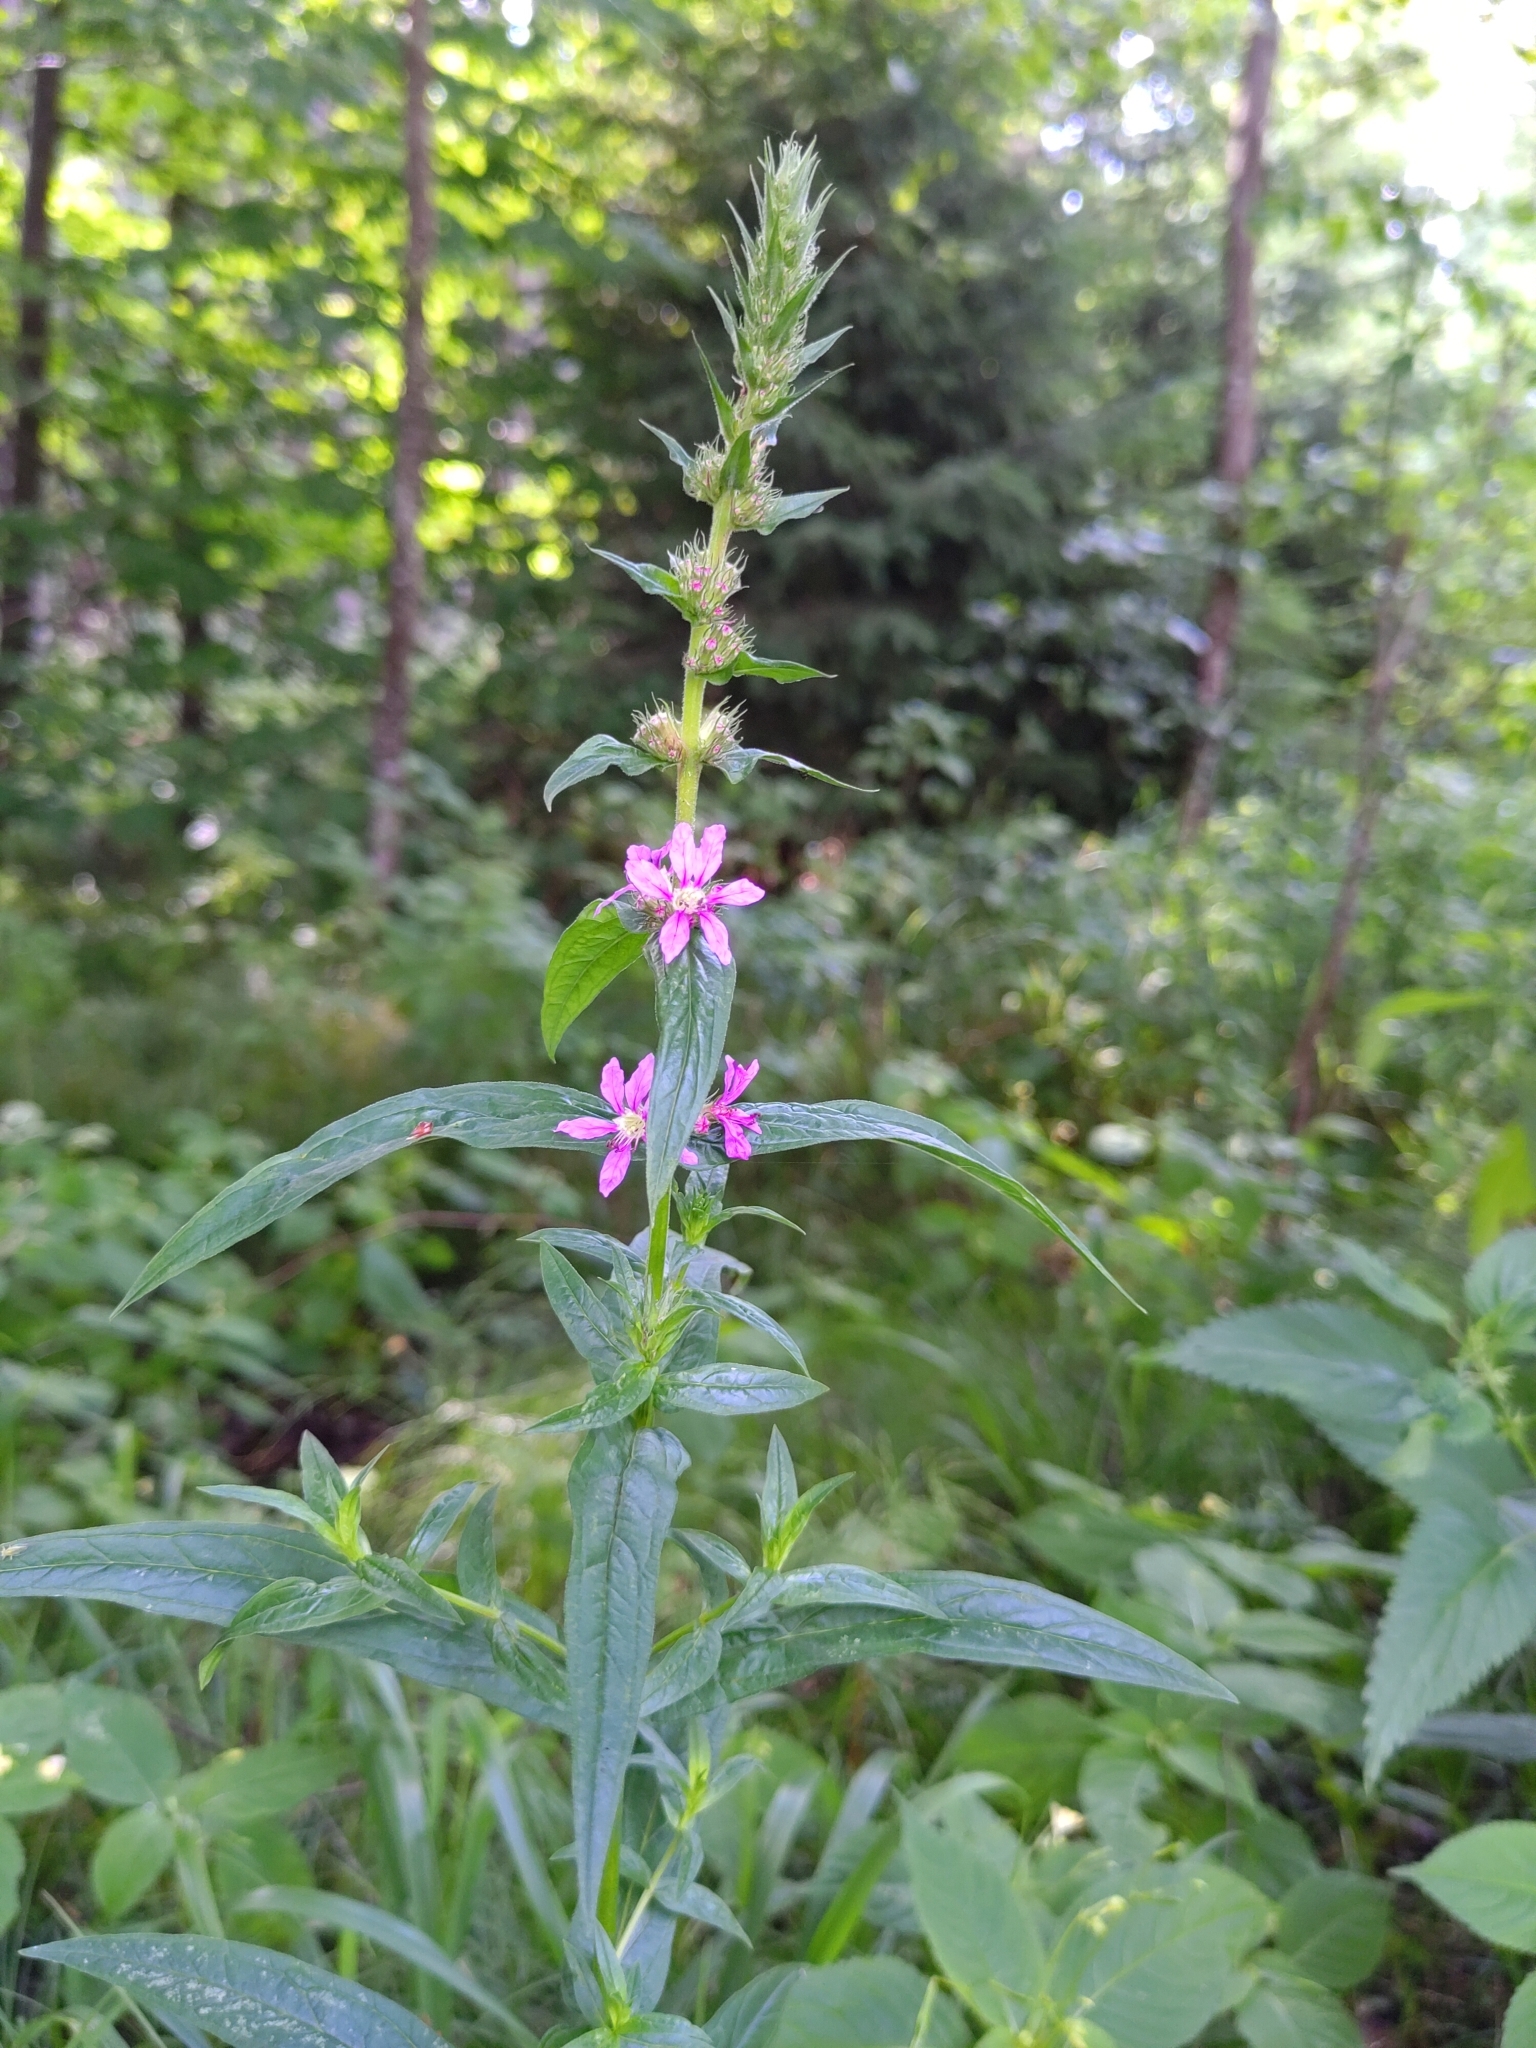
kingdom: Plantae
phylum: Tracheophyta
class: Magnoliopsida
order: Myrtales
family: Lythraceae
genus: Lythrum
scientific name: Lythrum salicaria
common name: Purple loosestrife
